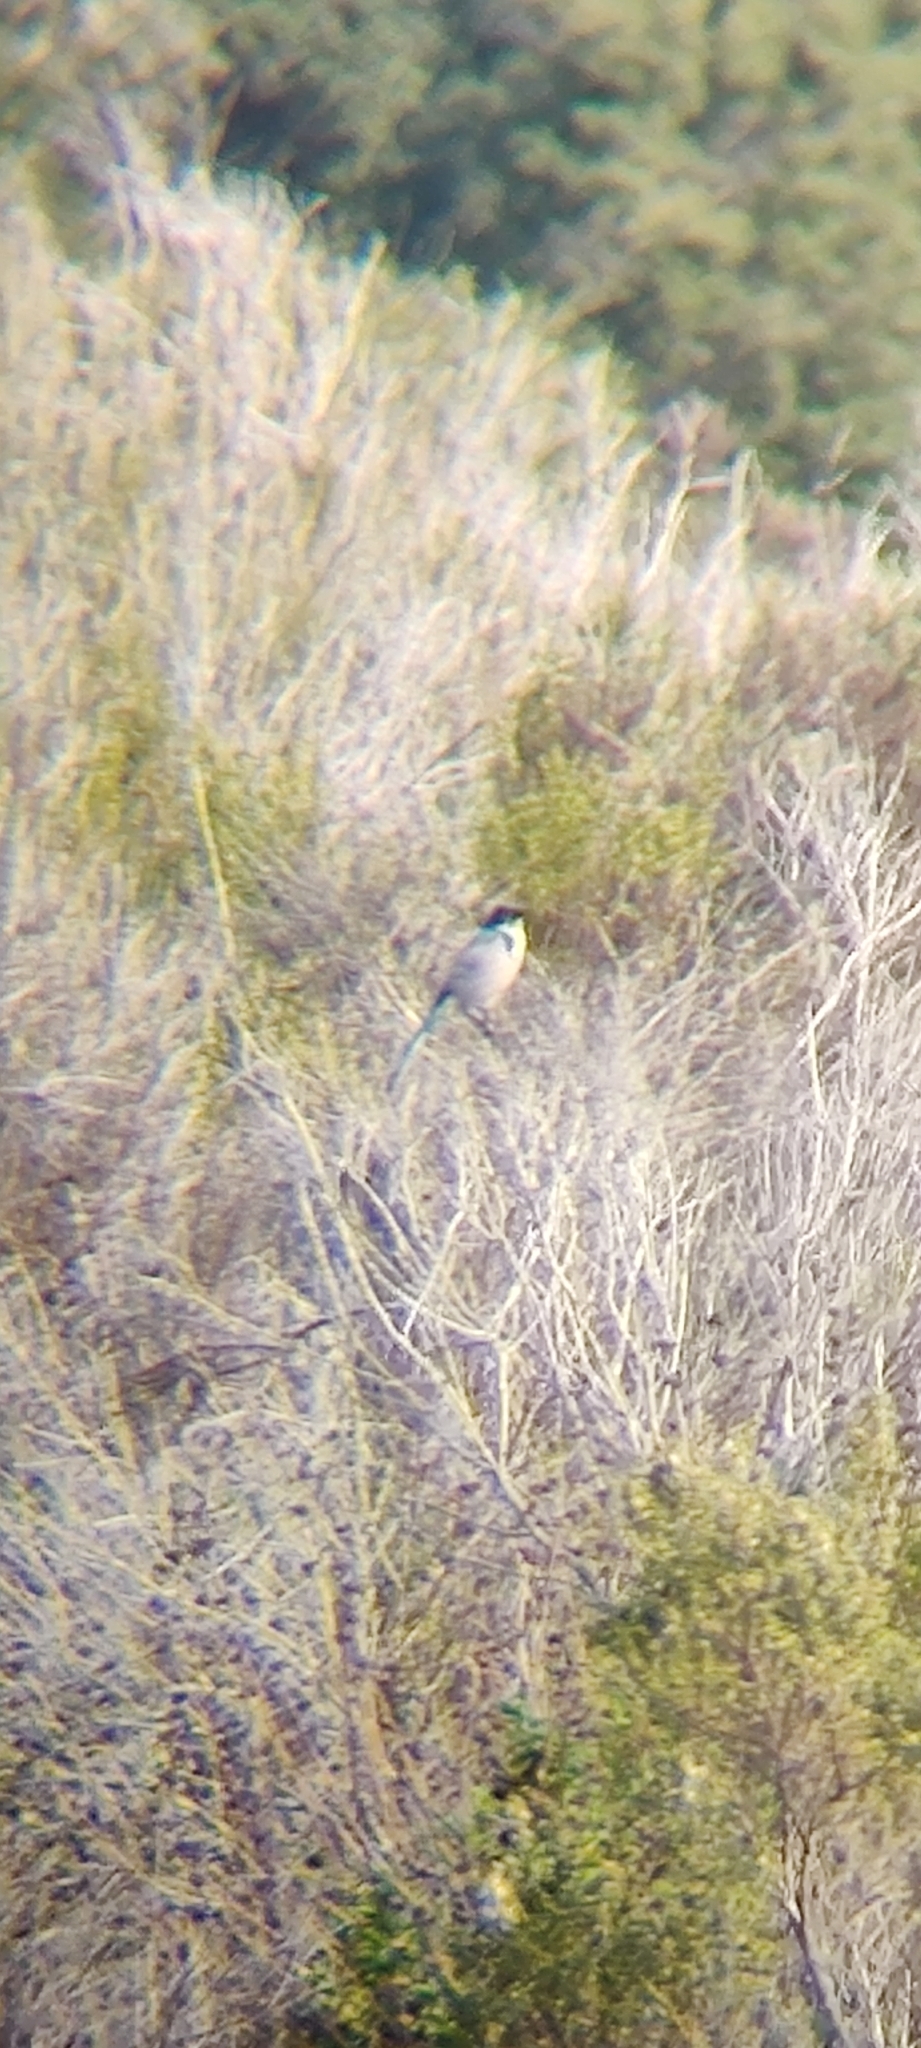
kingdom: Animalia
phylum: Chordata
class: Aves
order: Passeriformes
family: Corvidae
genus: Aphelocoma
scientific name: Aphelocoma californica
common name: California scrub-jay
